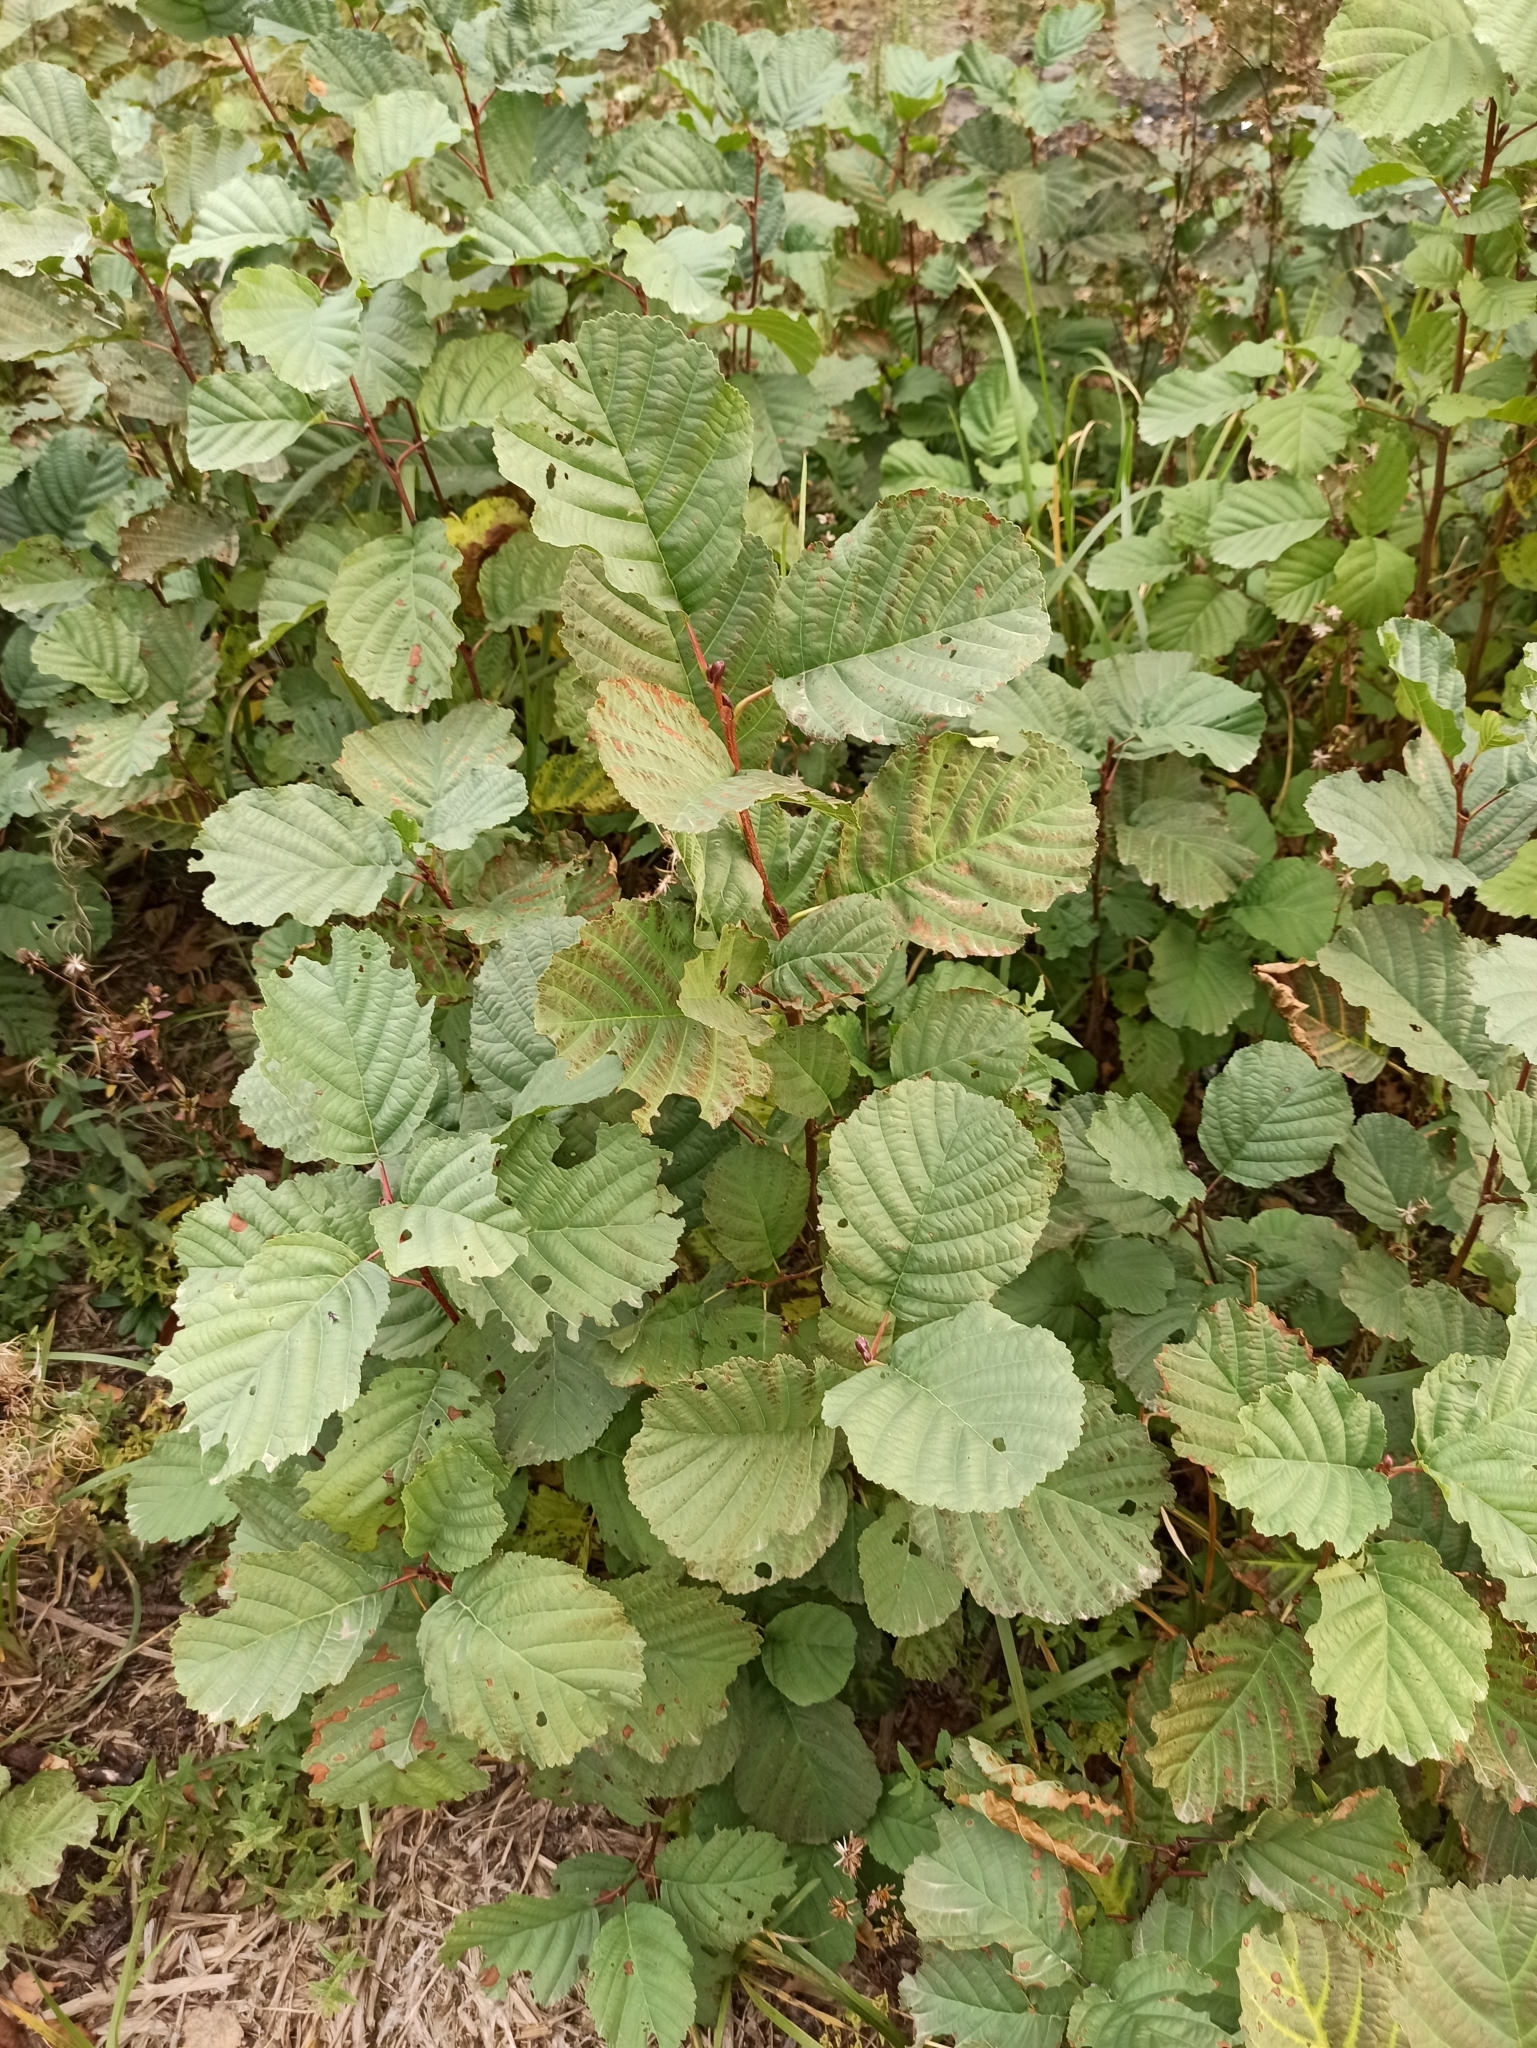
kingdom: Plantae
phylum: Tracheophyta
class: Magnoliopsida
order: Fagales
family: Betulaceae
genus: Alnus
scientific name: Alnus glutinosa
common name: Black alder
